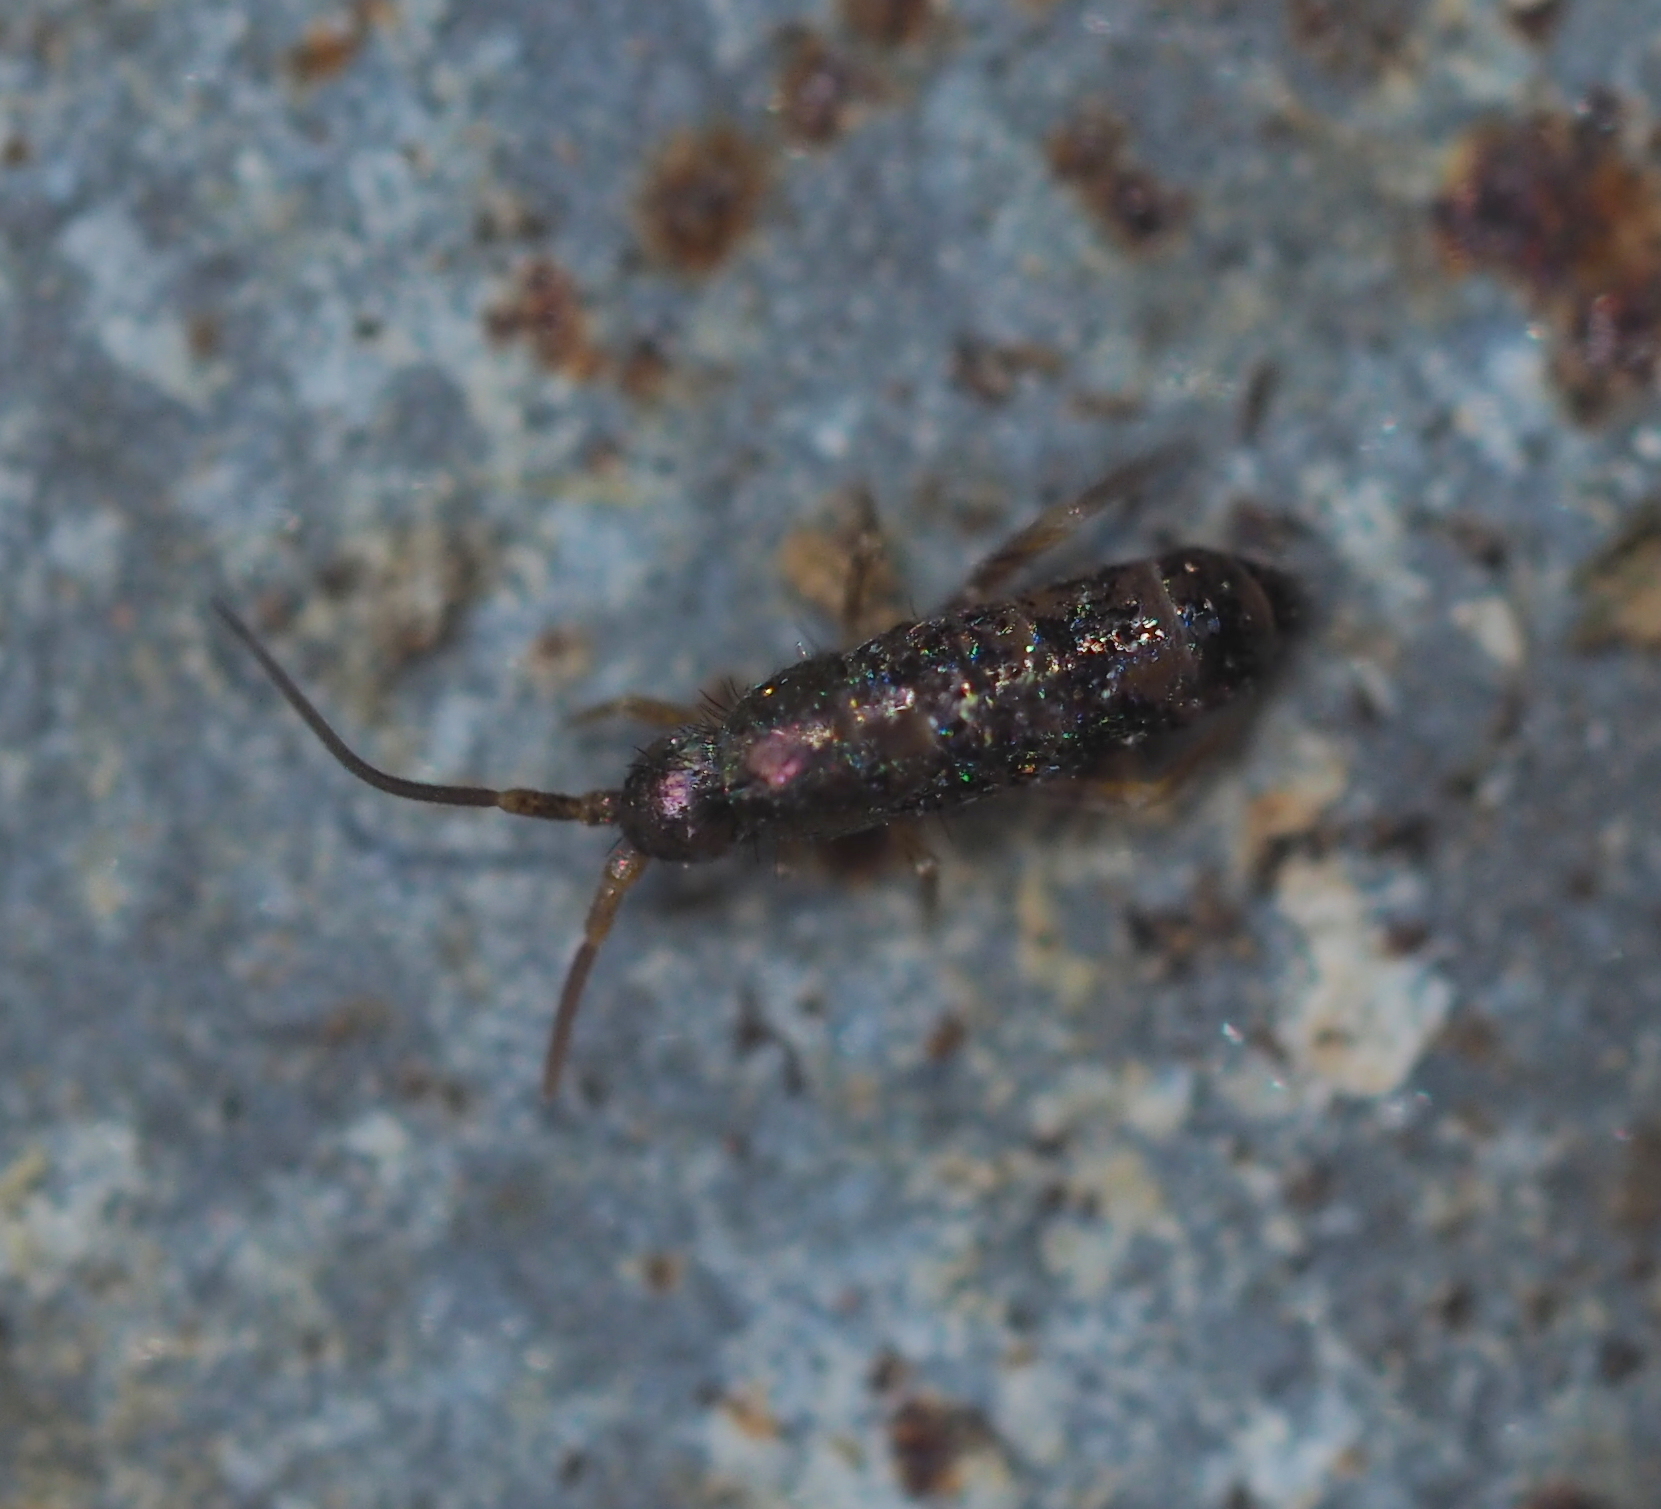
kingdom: Animalia
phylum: Arthropoda
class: Collembola
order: Entomobryomorpha
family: Tomoceridae
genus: Tomocerus
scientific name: Tomocerus minor
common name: Springtail
